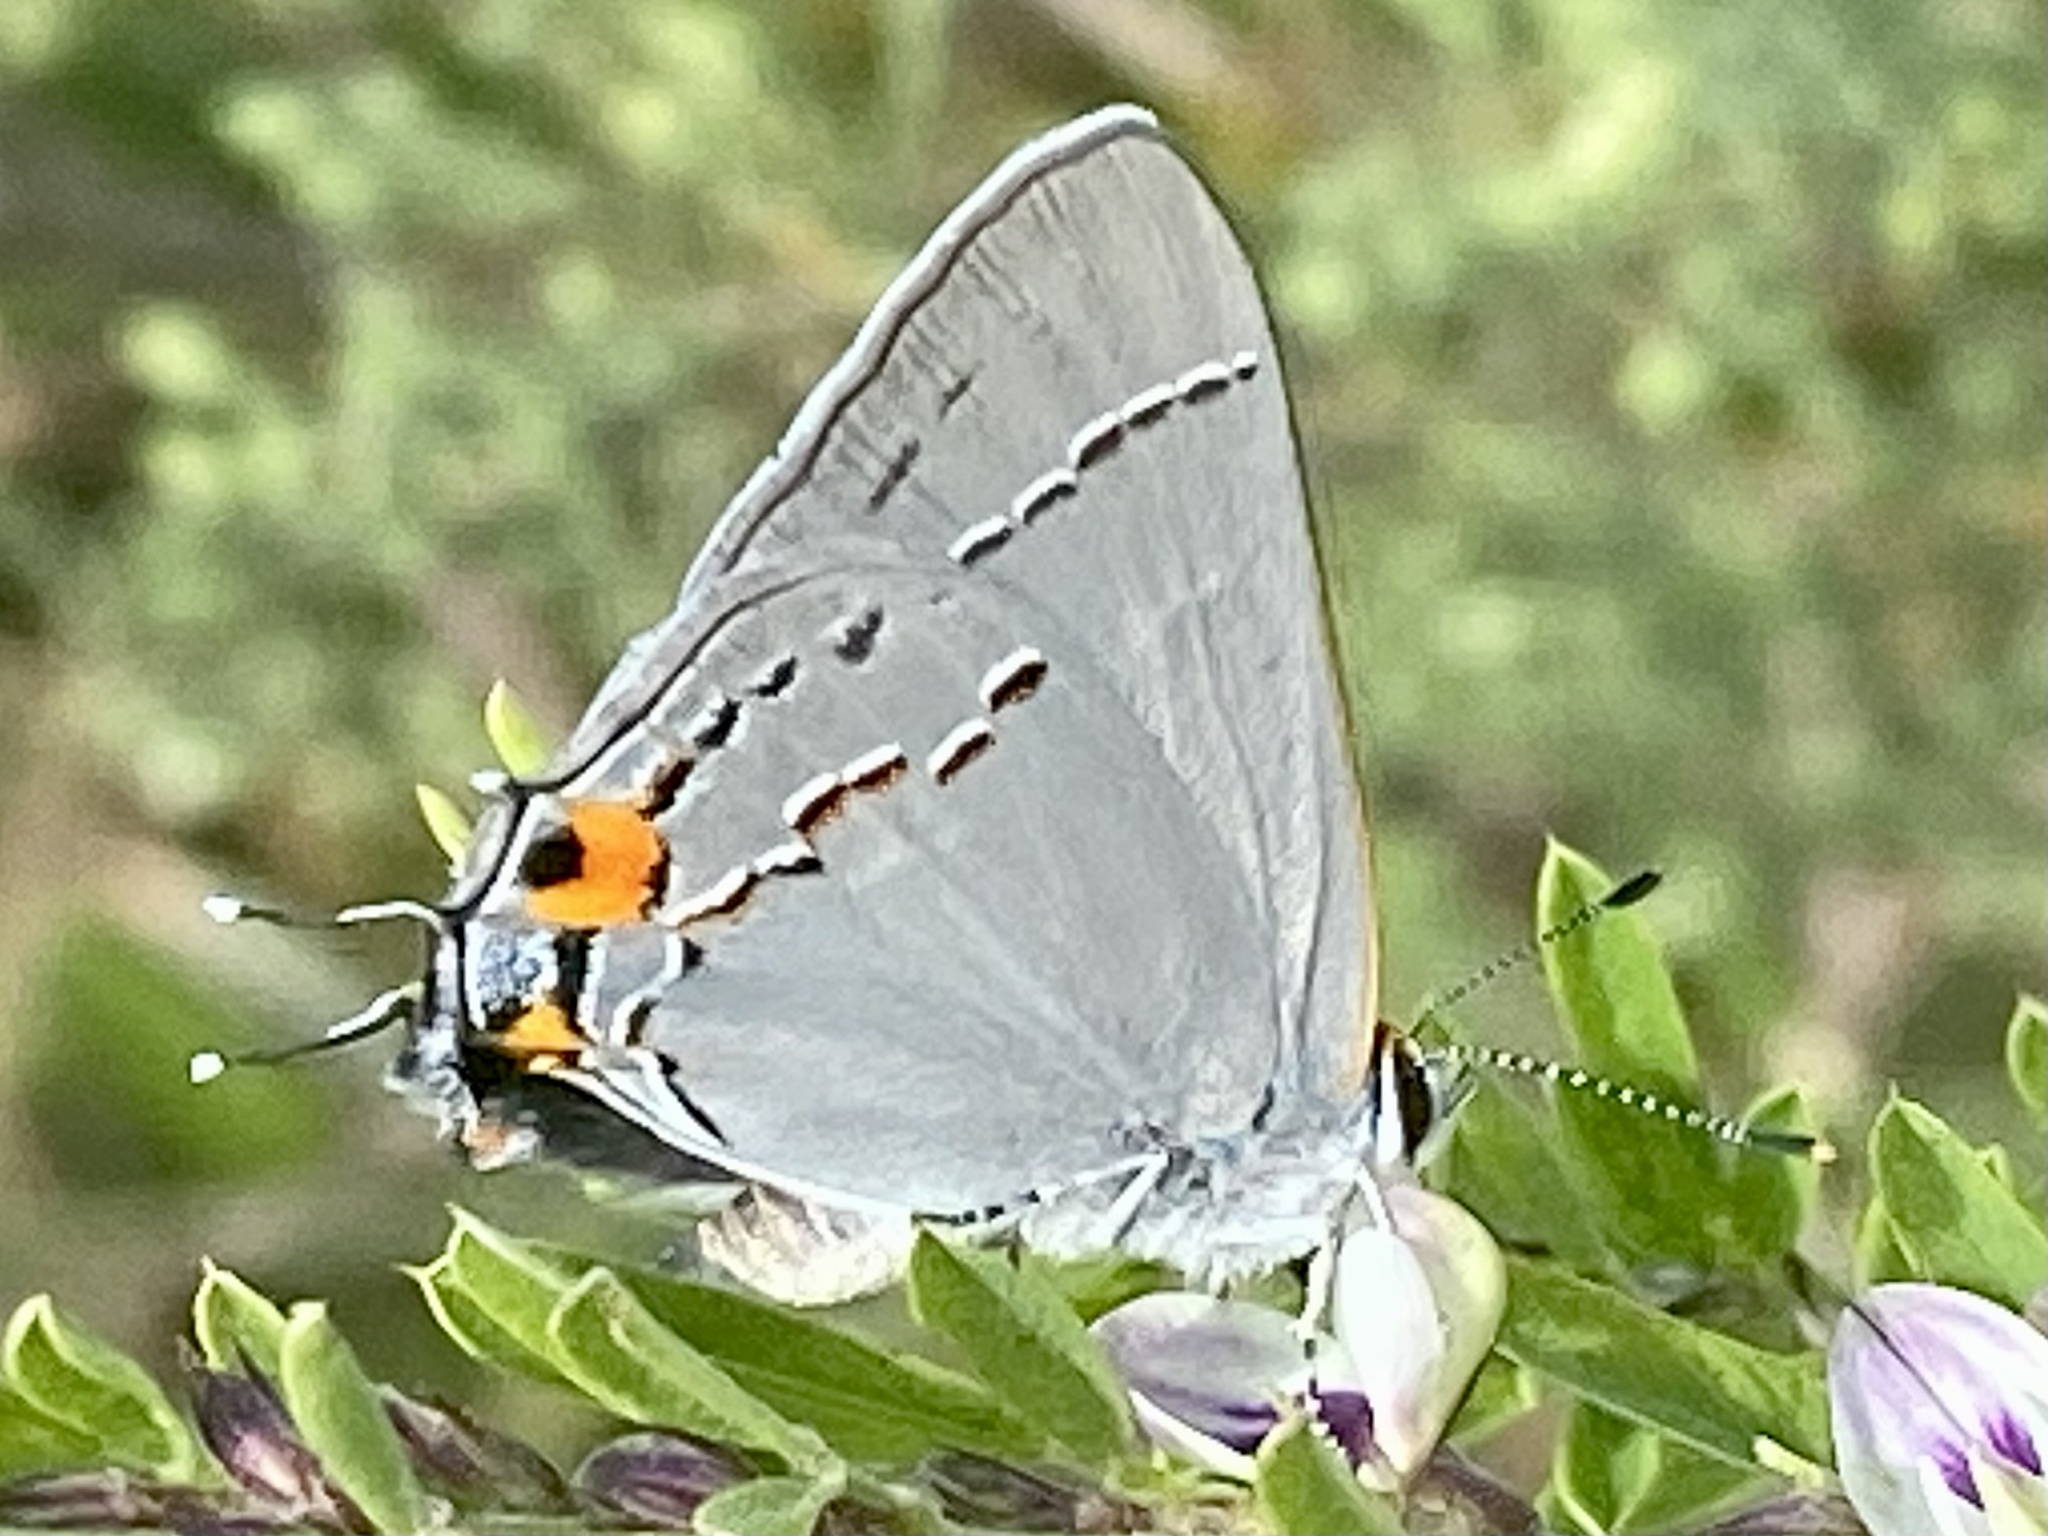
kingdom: Animalia
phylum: Arthropoda
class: Insecta
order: Lepidoptera
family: Lycaenidae
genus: Strymon
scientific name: Strymon melinus
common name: Gray hairstreak
